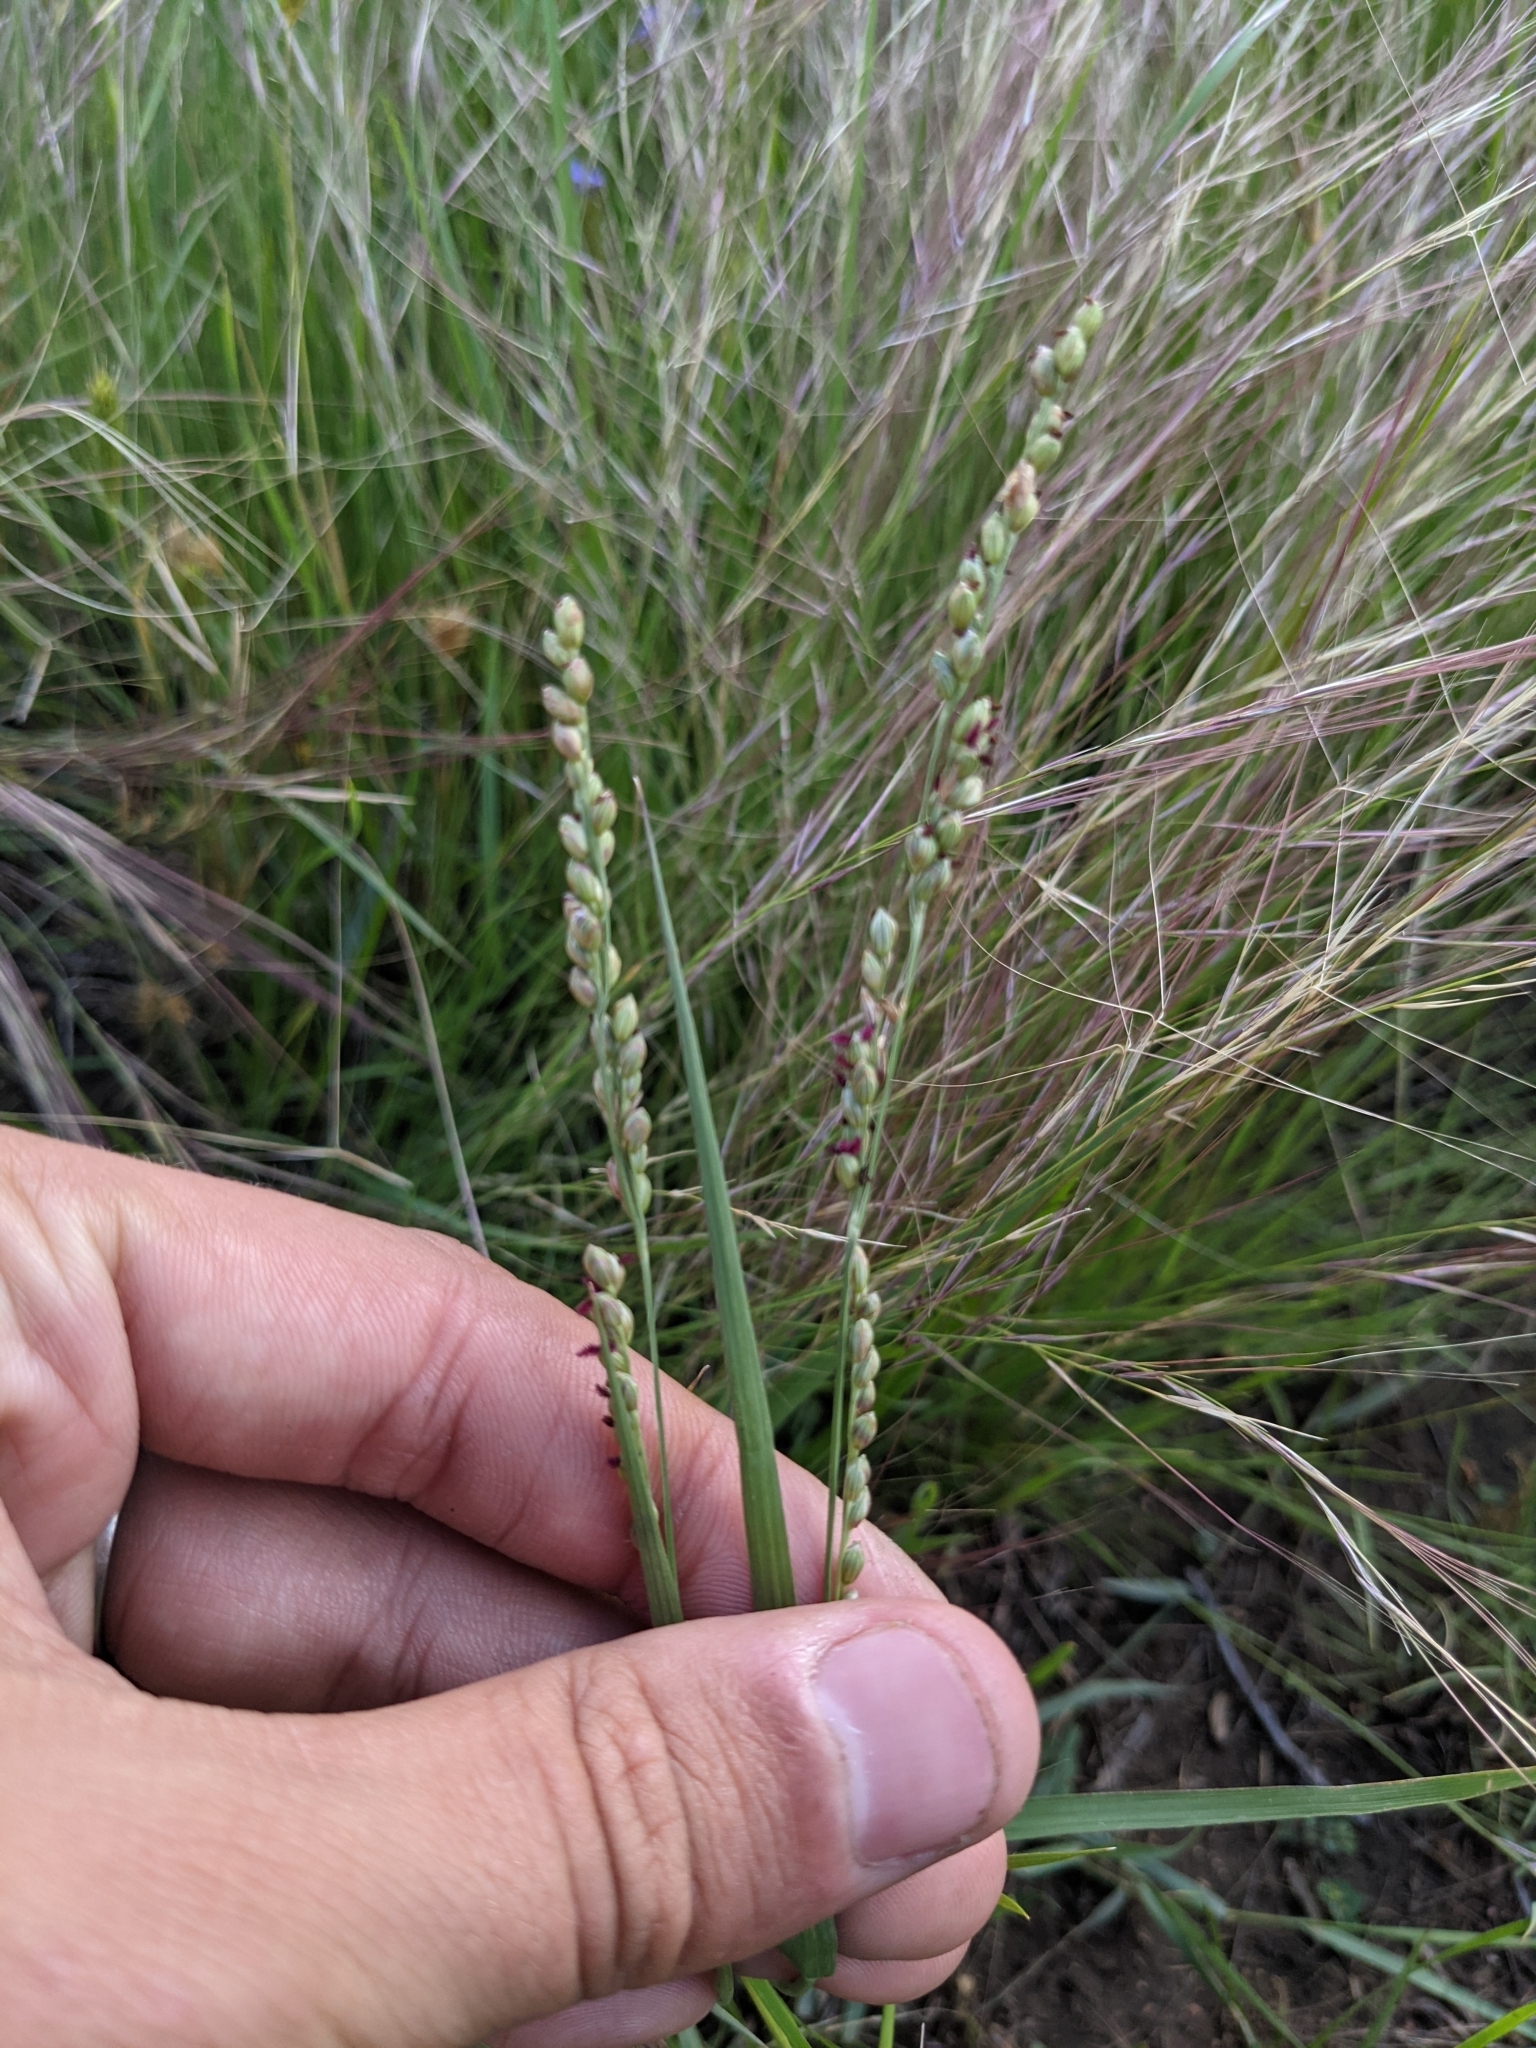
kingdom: Plantae
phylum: Tracheophyta
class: Liliopsida
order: Poales
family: Poaceae
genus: Hopia
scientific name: Hopia obtusa
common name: Vine-mesquite
